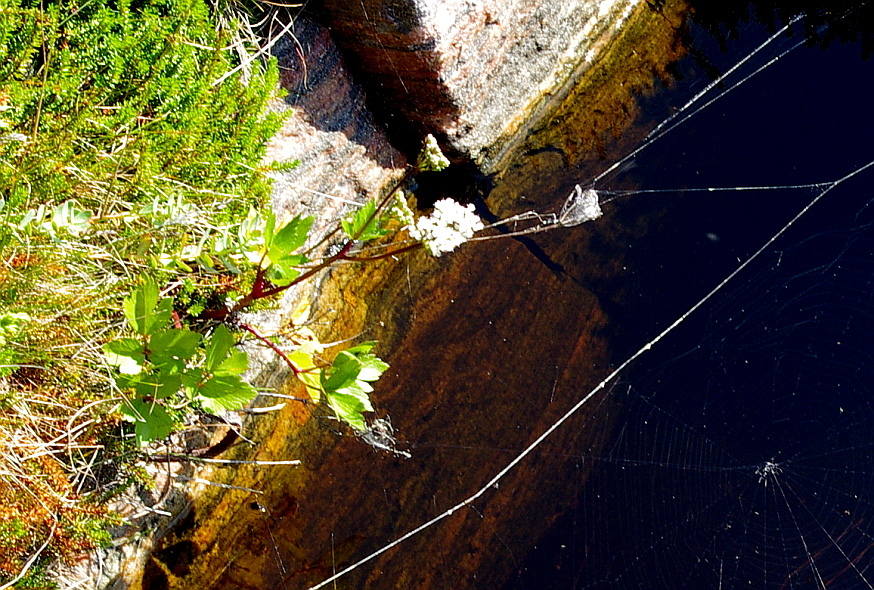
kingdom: Plantae
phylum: Tracheophyta
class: Magnoliopsida
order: Apiales
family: Apiaceae
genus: Ligusticum
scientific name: Ligusticum scothicum
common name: Beach lovage
